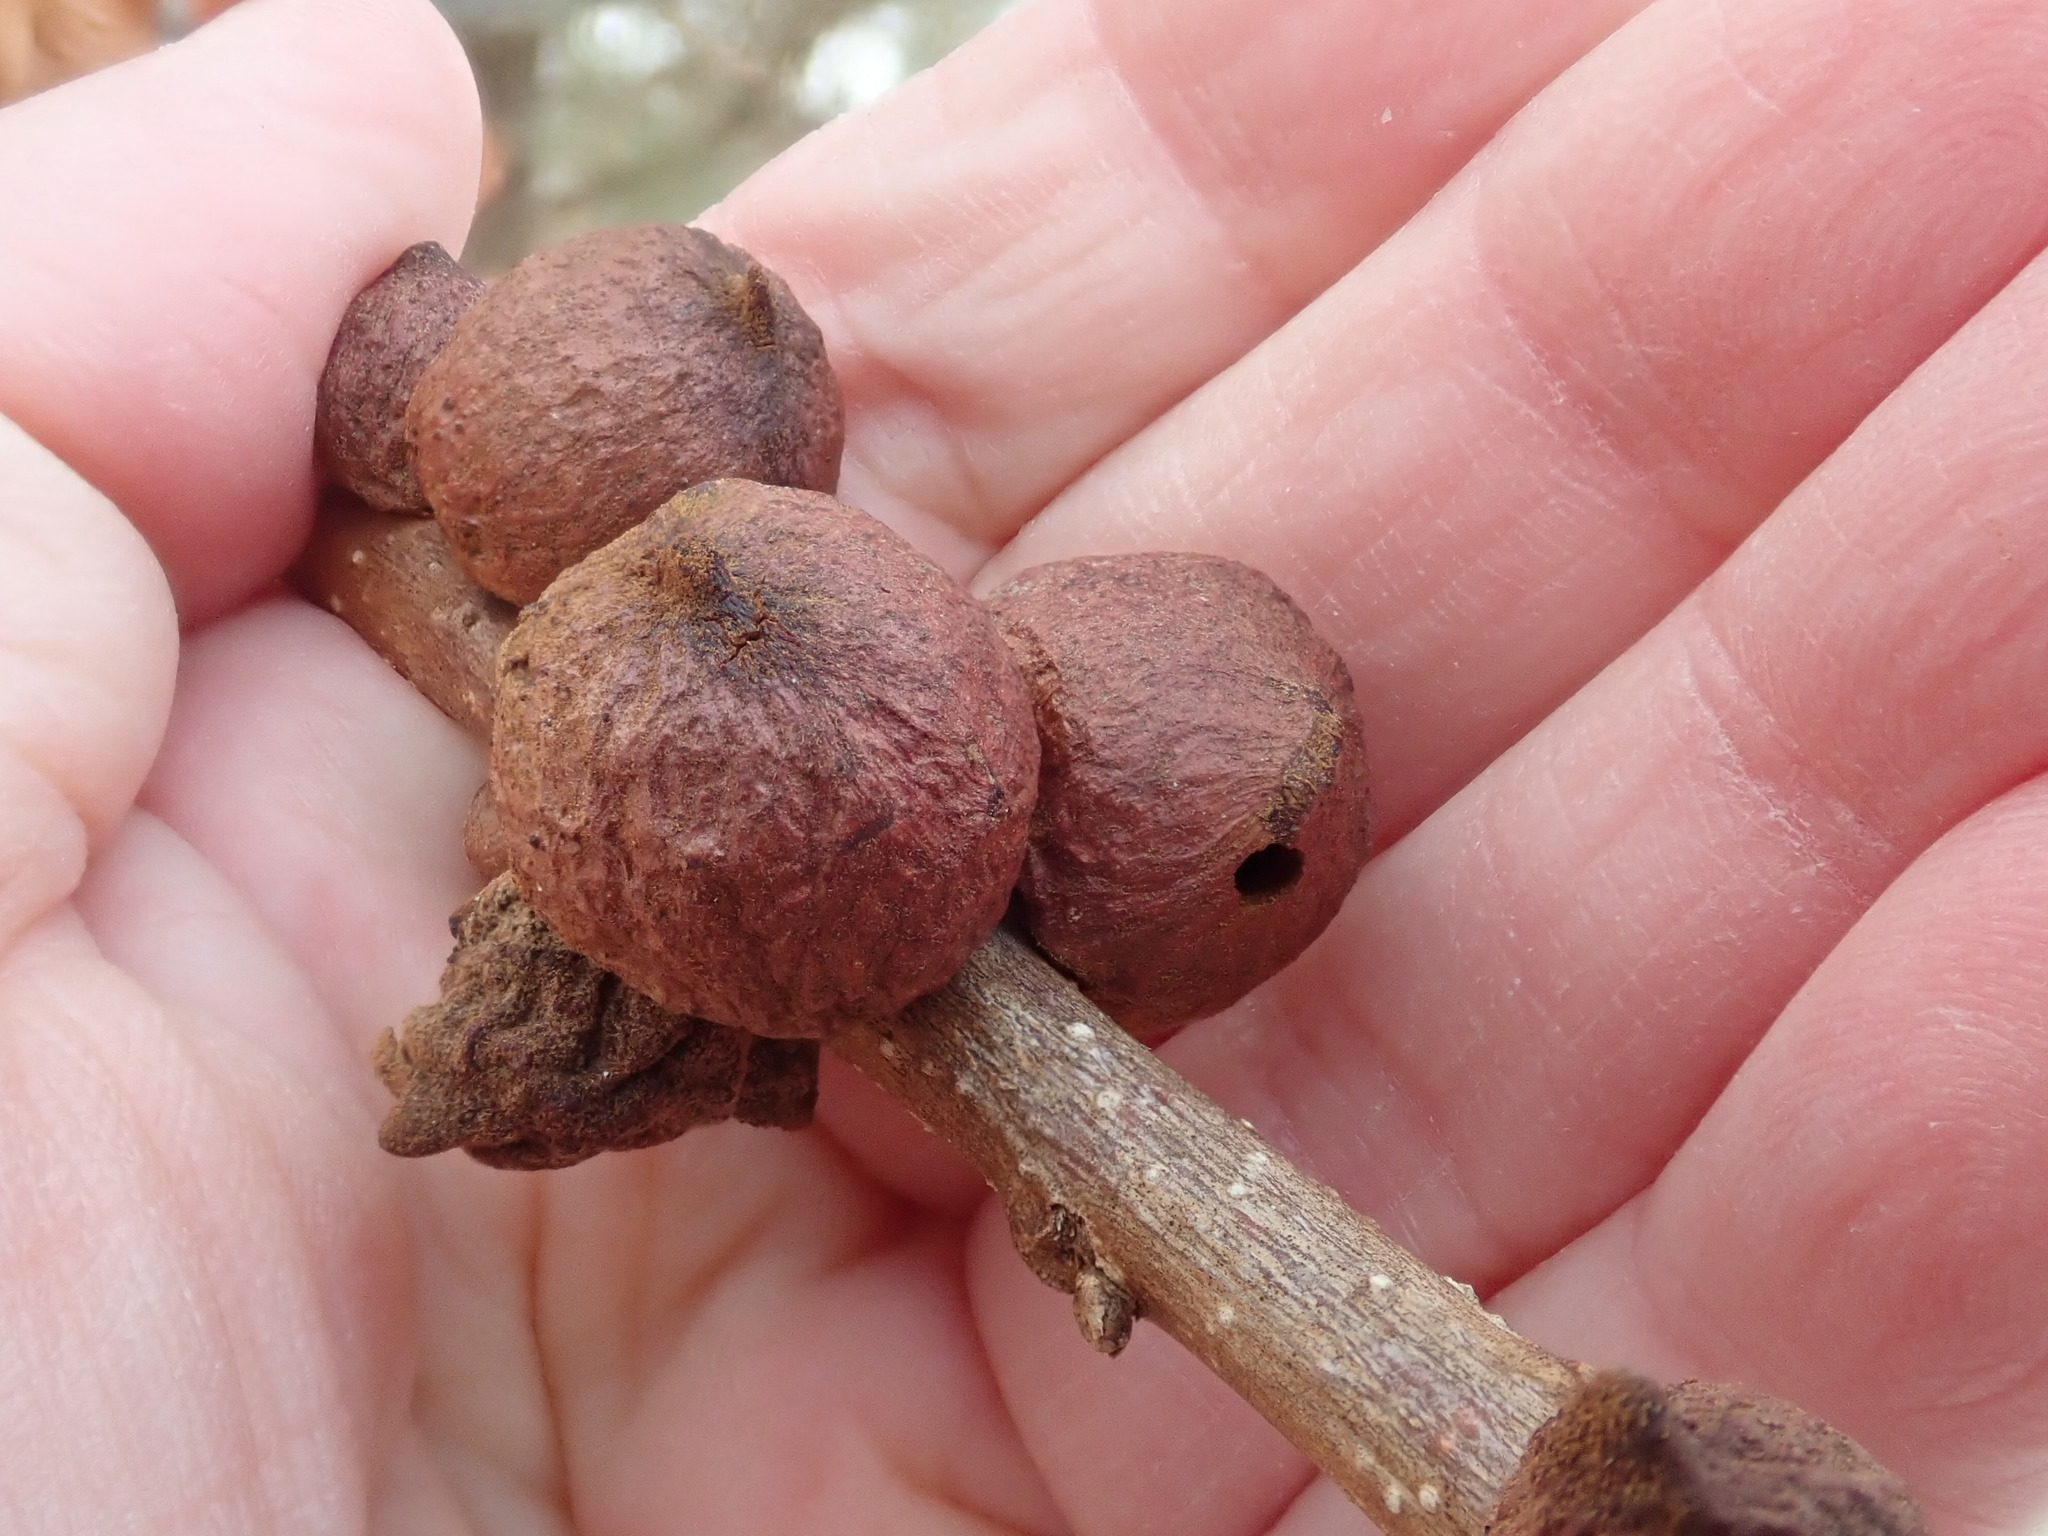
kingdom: Animalia
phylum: Arthropoda
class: Insecta
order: Hymenoptera
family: Cynipidae
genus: Disholcaspis
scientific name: Disholcaspis
